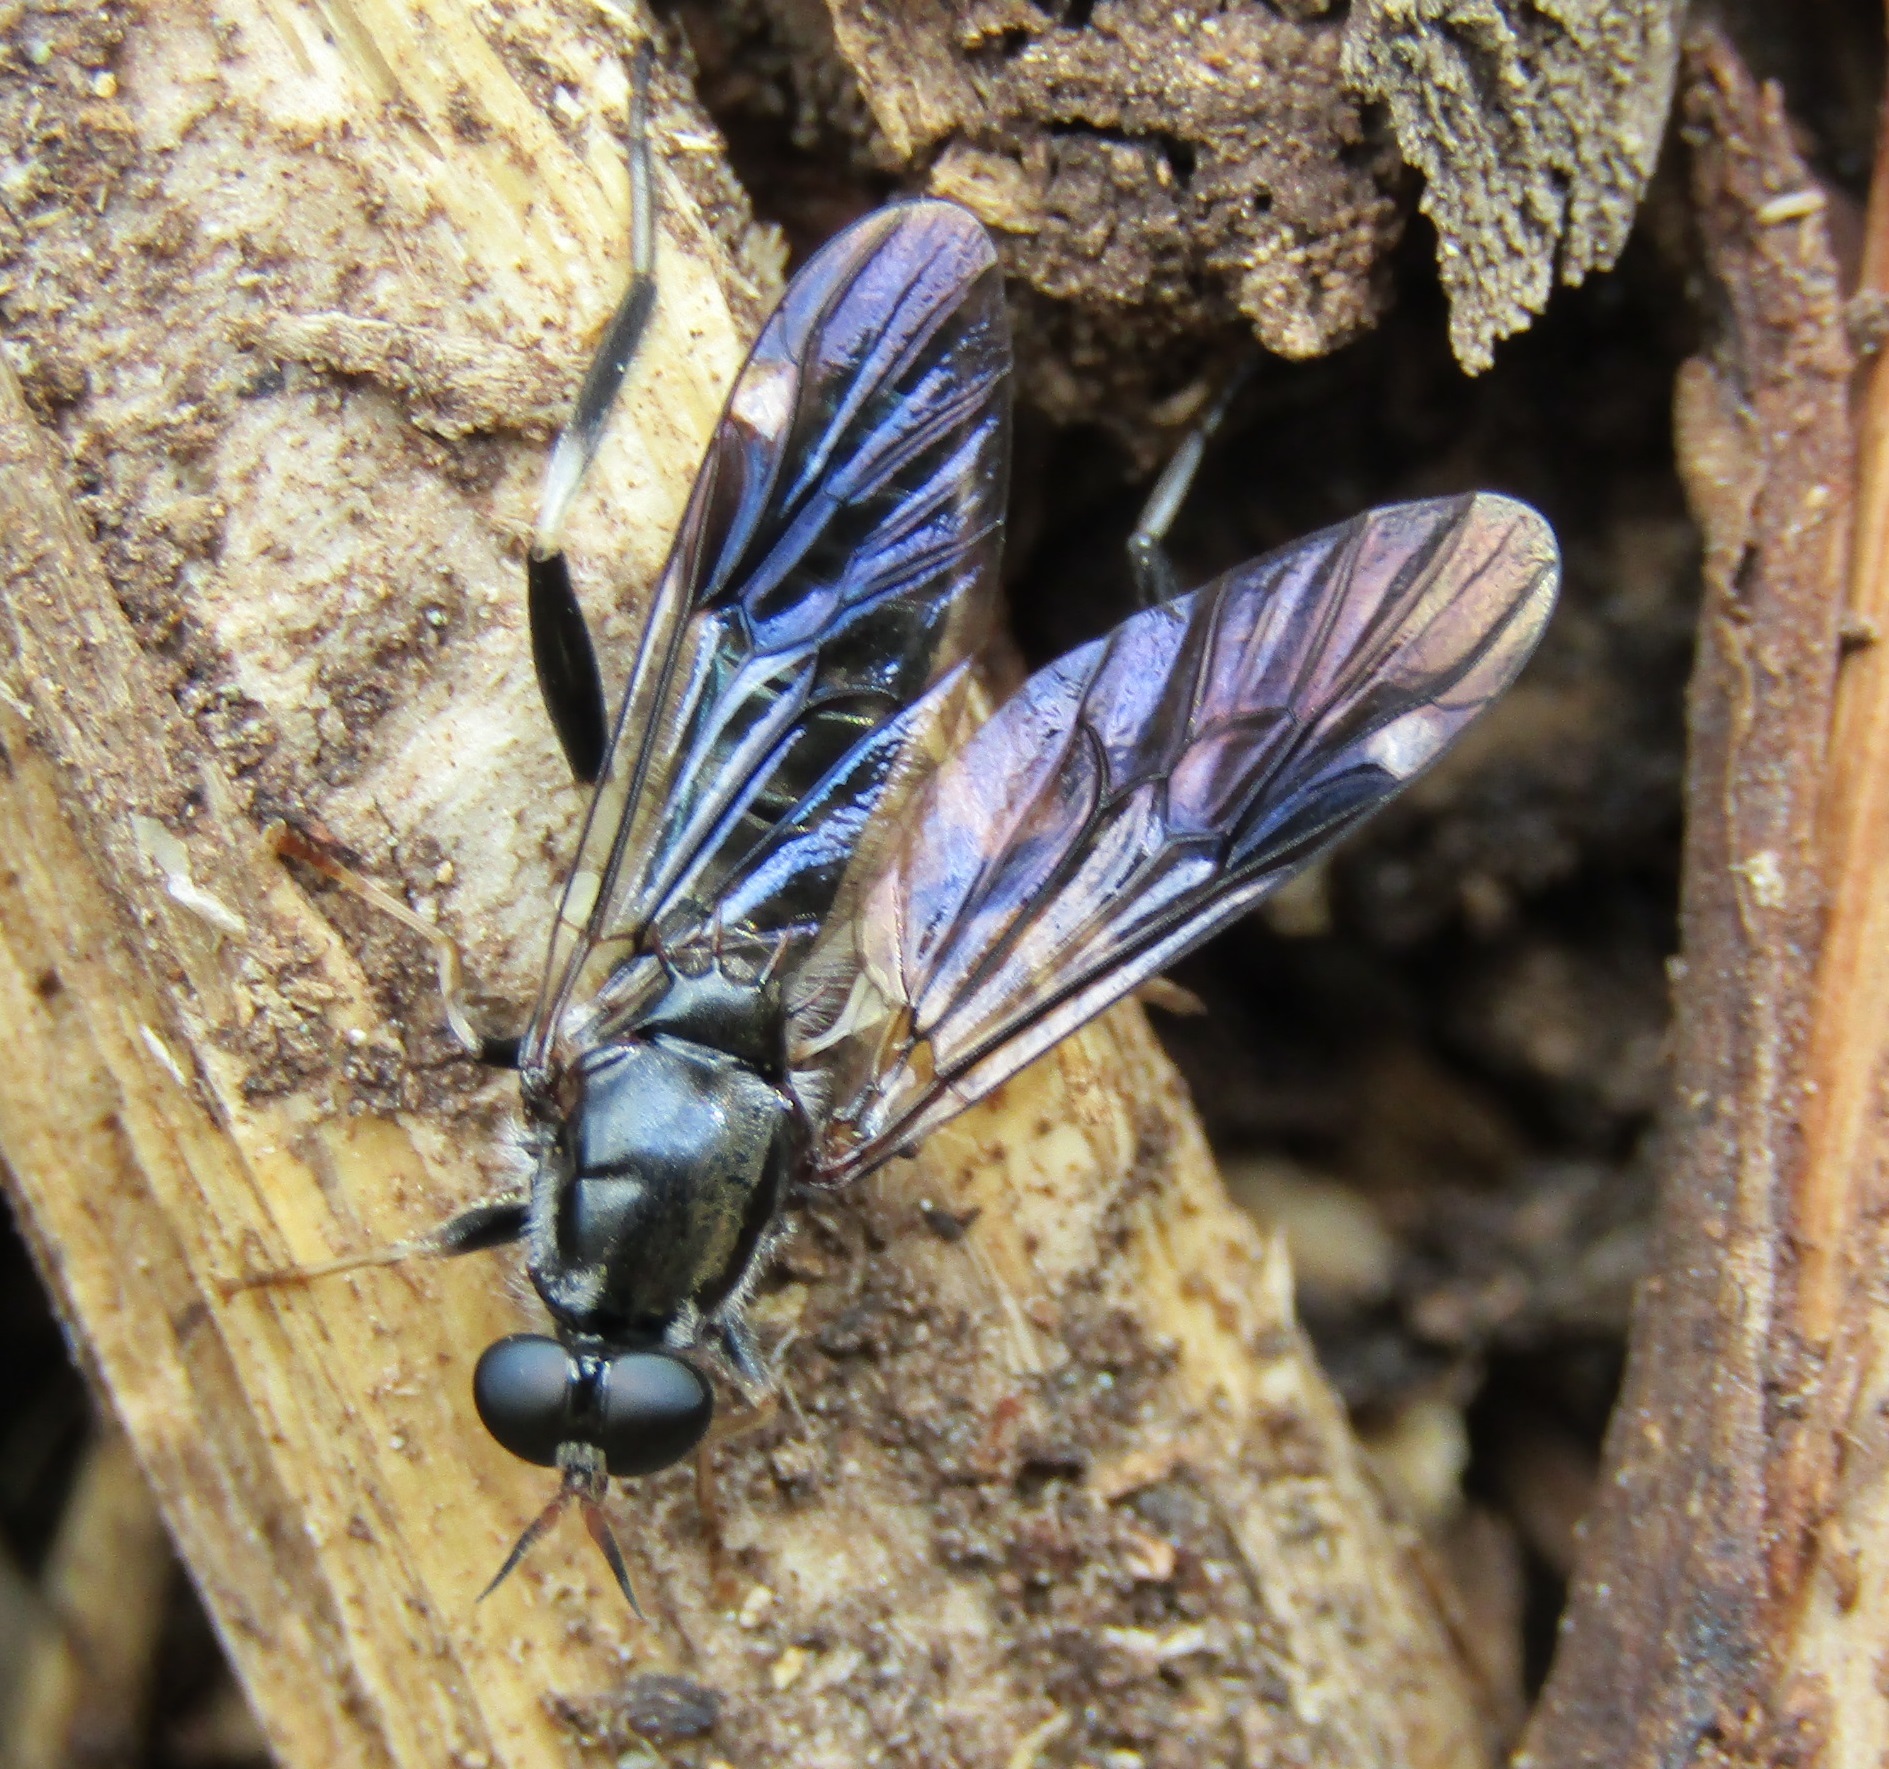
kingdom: Animalia
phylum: Arthropoda
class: Insecta
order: Diptera
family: Stratiomyidae
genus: Exaireta
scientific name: Exaireta spinigera
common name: Blue soldier fly
